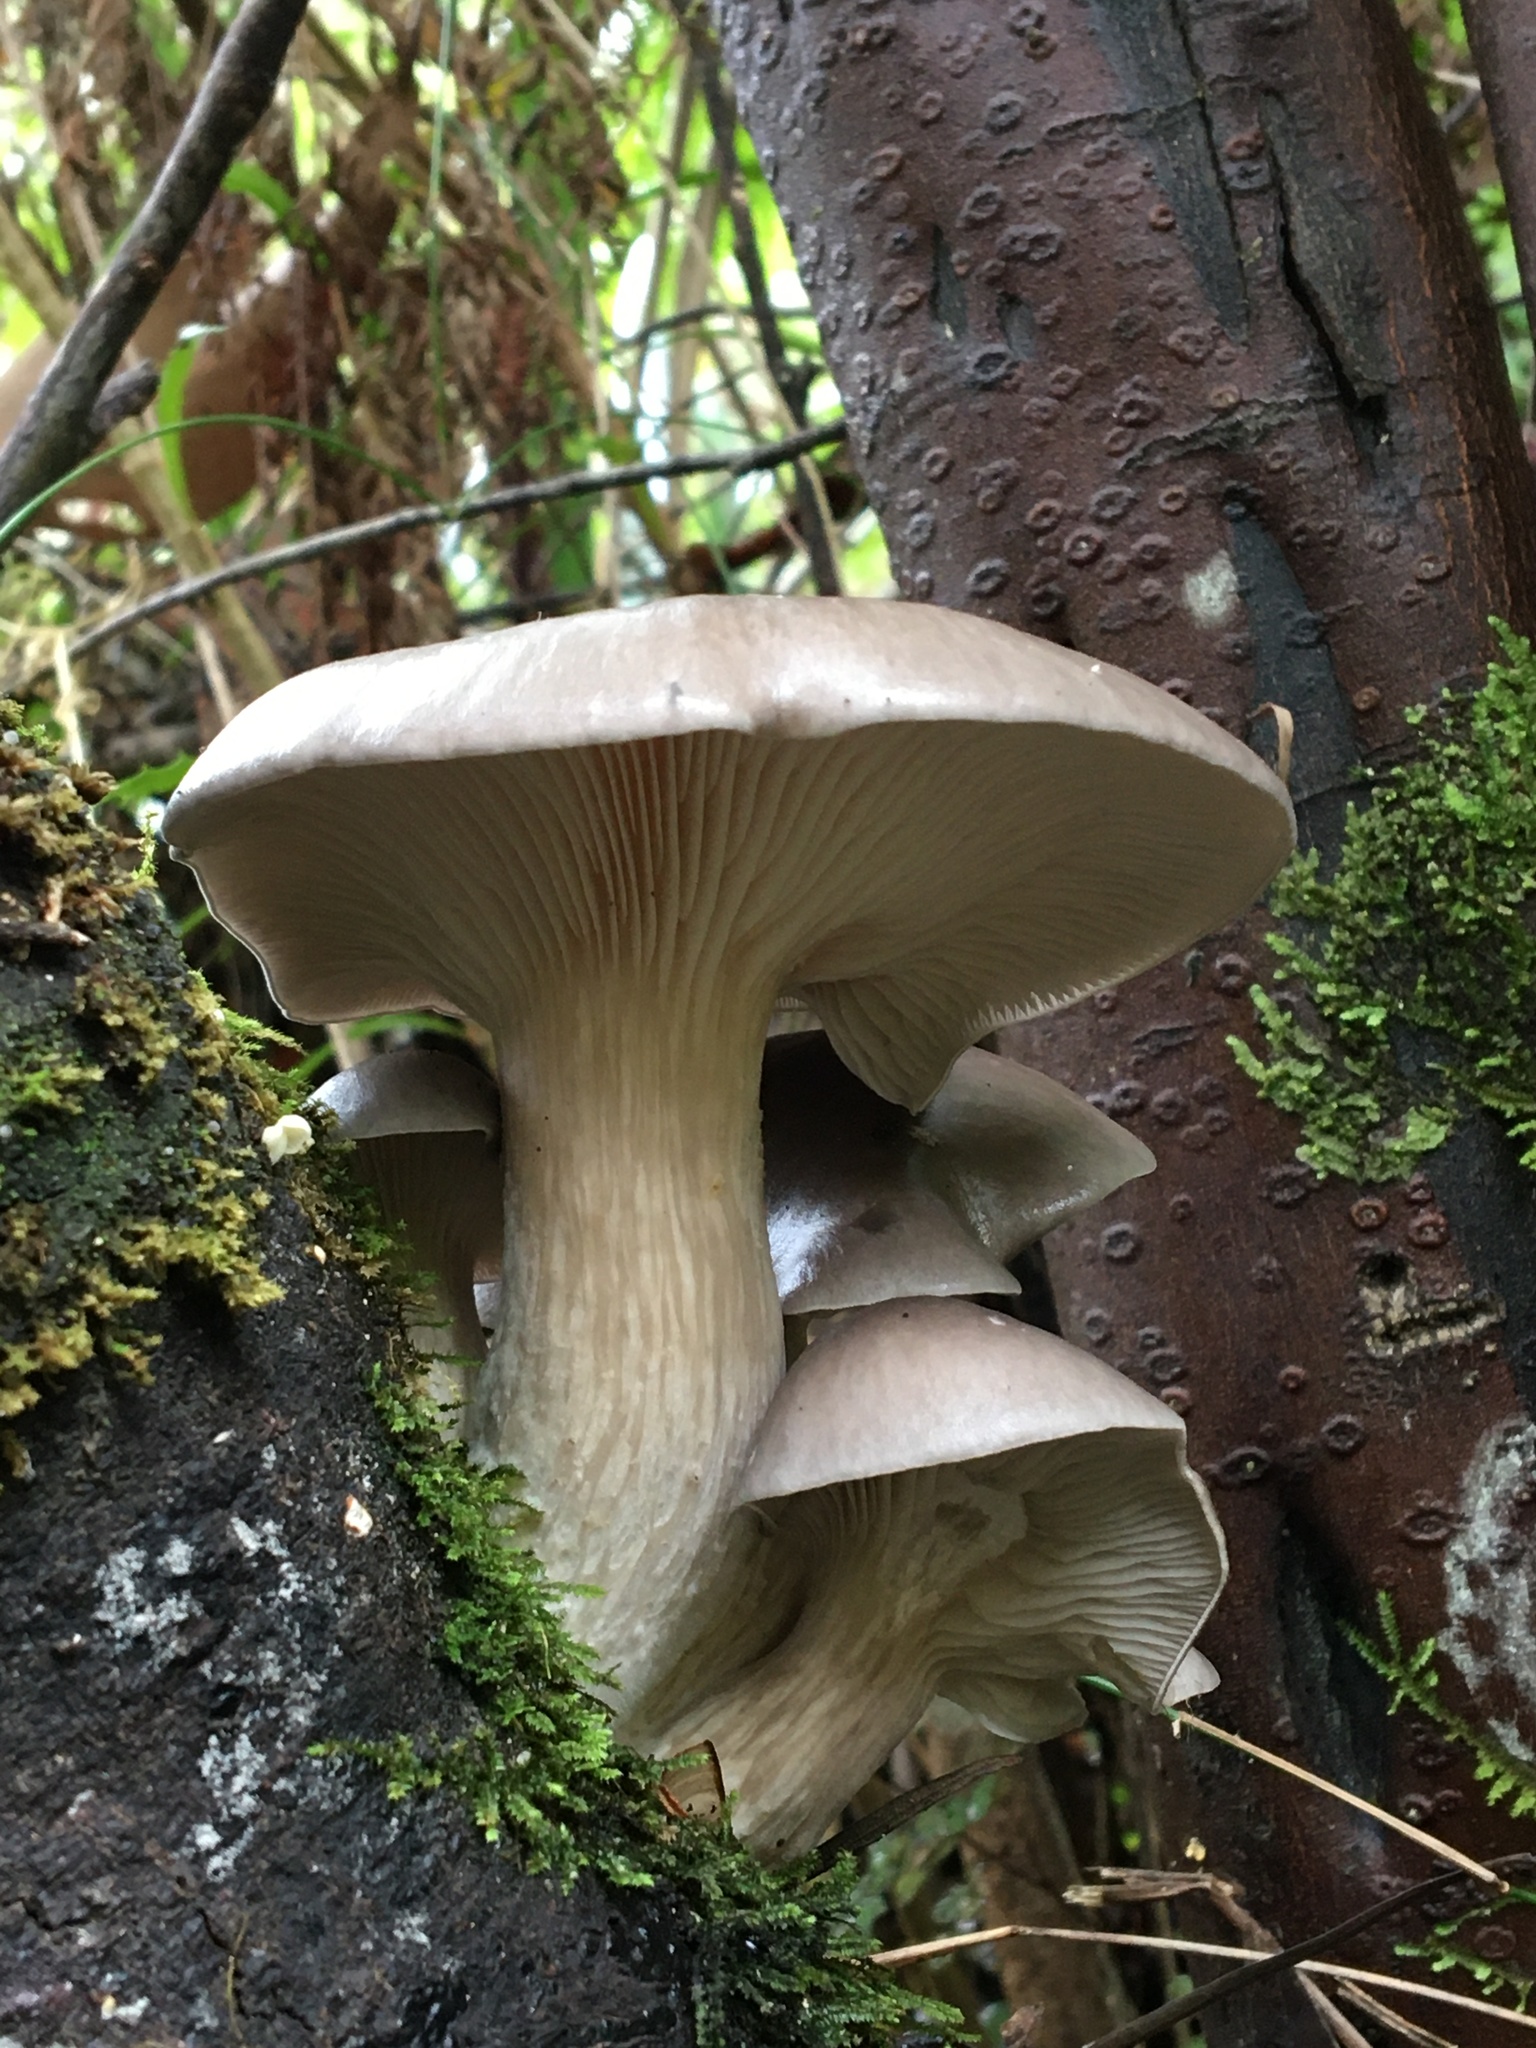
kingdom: Fungi
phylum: Basidiomycota
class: Agaricomycetes
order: Agaricales
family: Pleurotaceae
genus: Pleurotus
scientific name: Pleurotus australis
